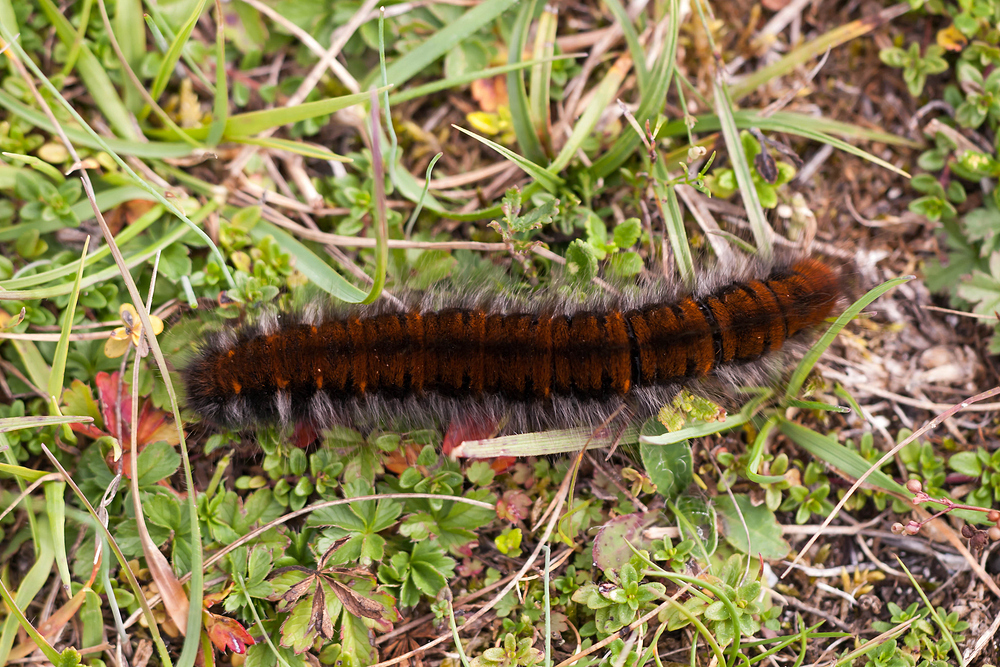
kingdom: Animalia
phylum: Arthropoda
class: Insecta
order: Lepidoptera
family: Lasiocampidae
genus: Macrothylacia
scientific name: Macrothylacia rubi
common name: Fox moth
